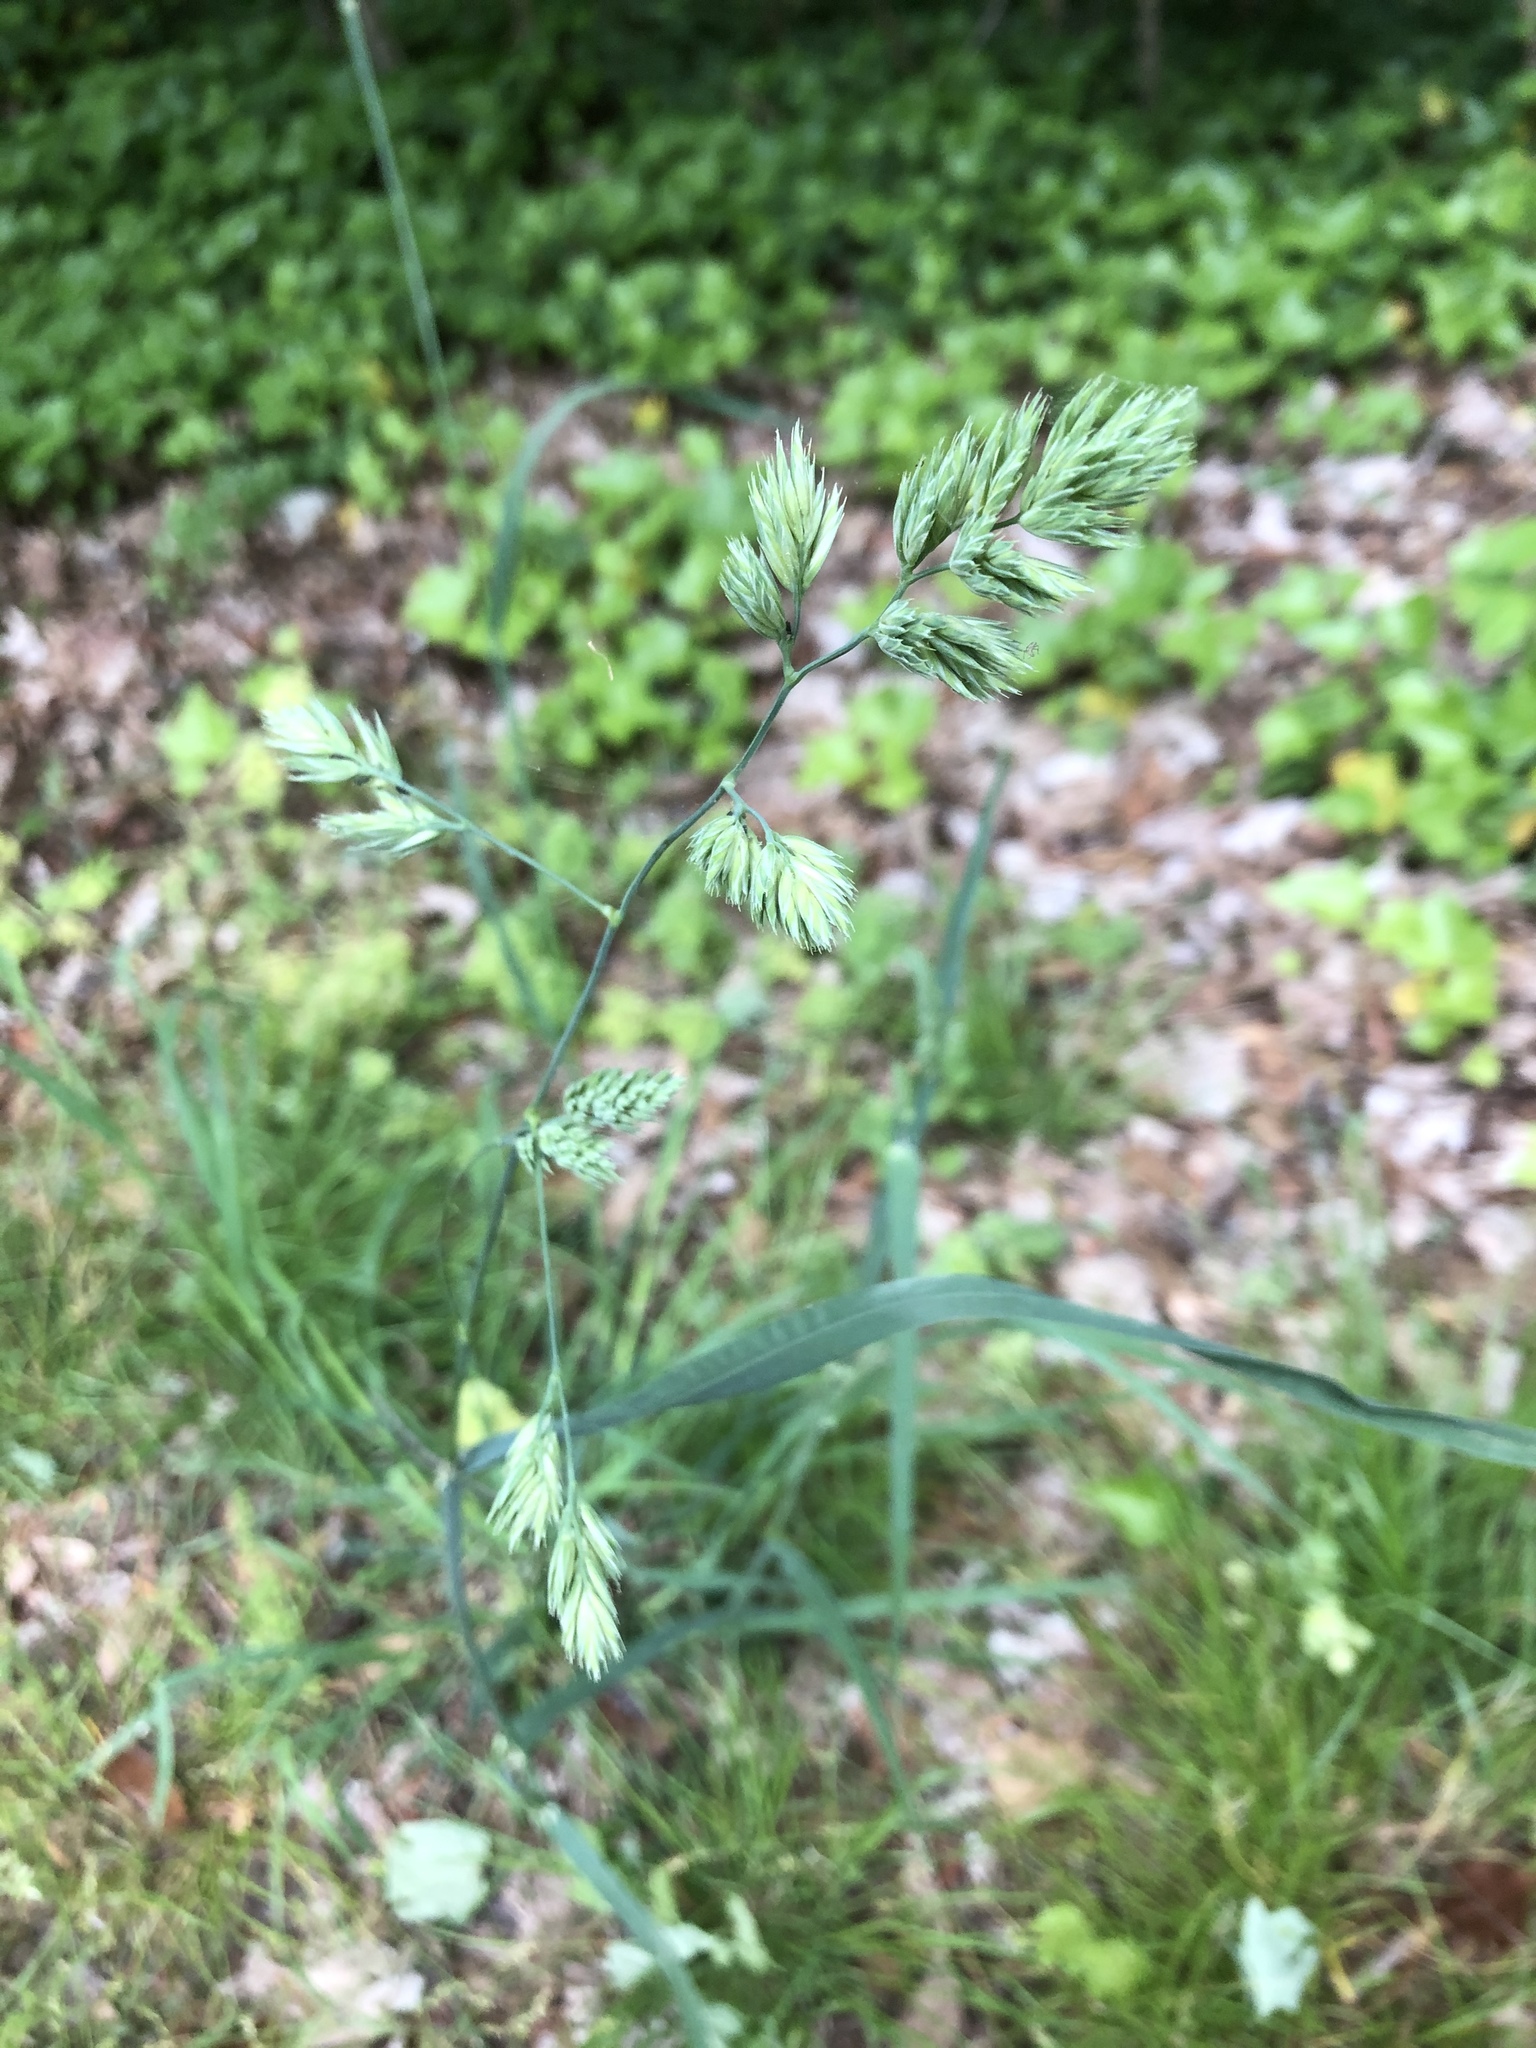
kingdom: Plantae
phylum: Tracheophyta
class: Liliopsida
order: Poales
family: Poaceae
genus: Dactylis
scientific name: Dactylis glomerata
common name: Orchardgrass
